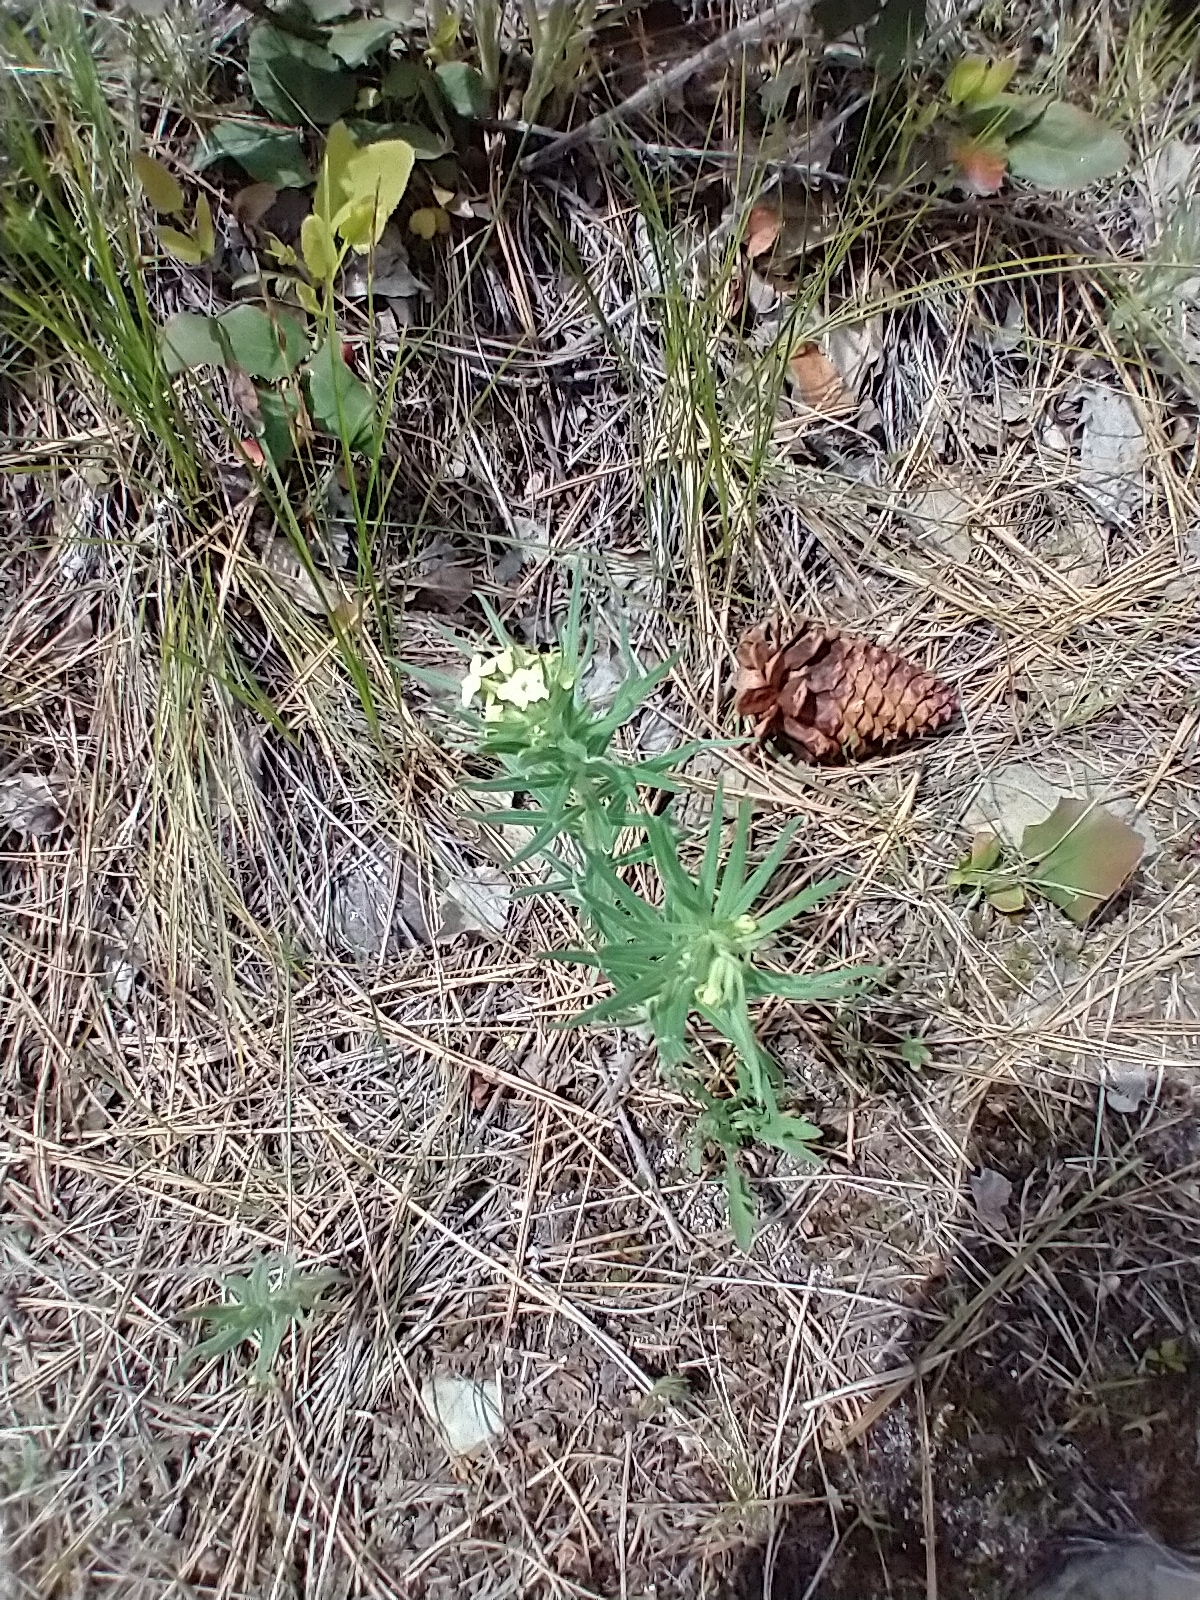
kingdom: Plantae
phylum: Tracheophyta
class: Magnoliopsida
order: Boraginales
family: Boraginaceae
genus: Lithospermum
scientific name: Lithospermum ruderale
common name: Western gromwell
